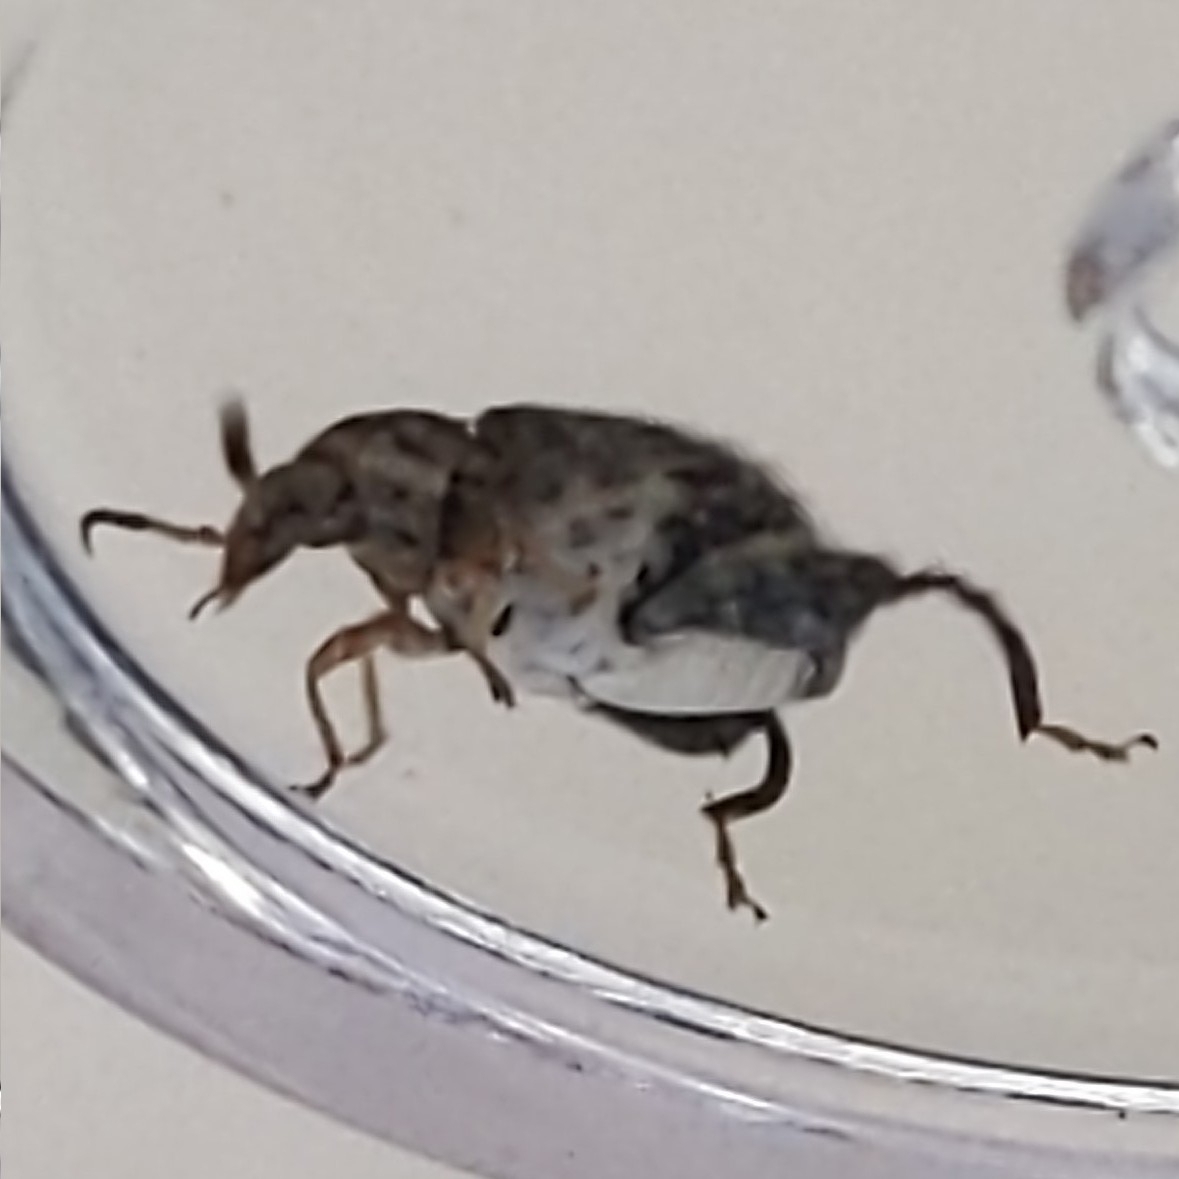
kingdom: Animalia
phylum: Arthropoda
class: Insecta
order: Coleoptera
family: Chrysomelidae
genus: Penthobruchus
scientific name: Penthobruchus
